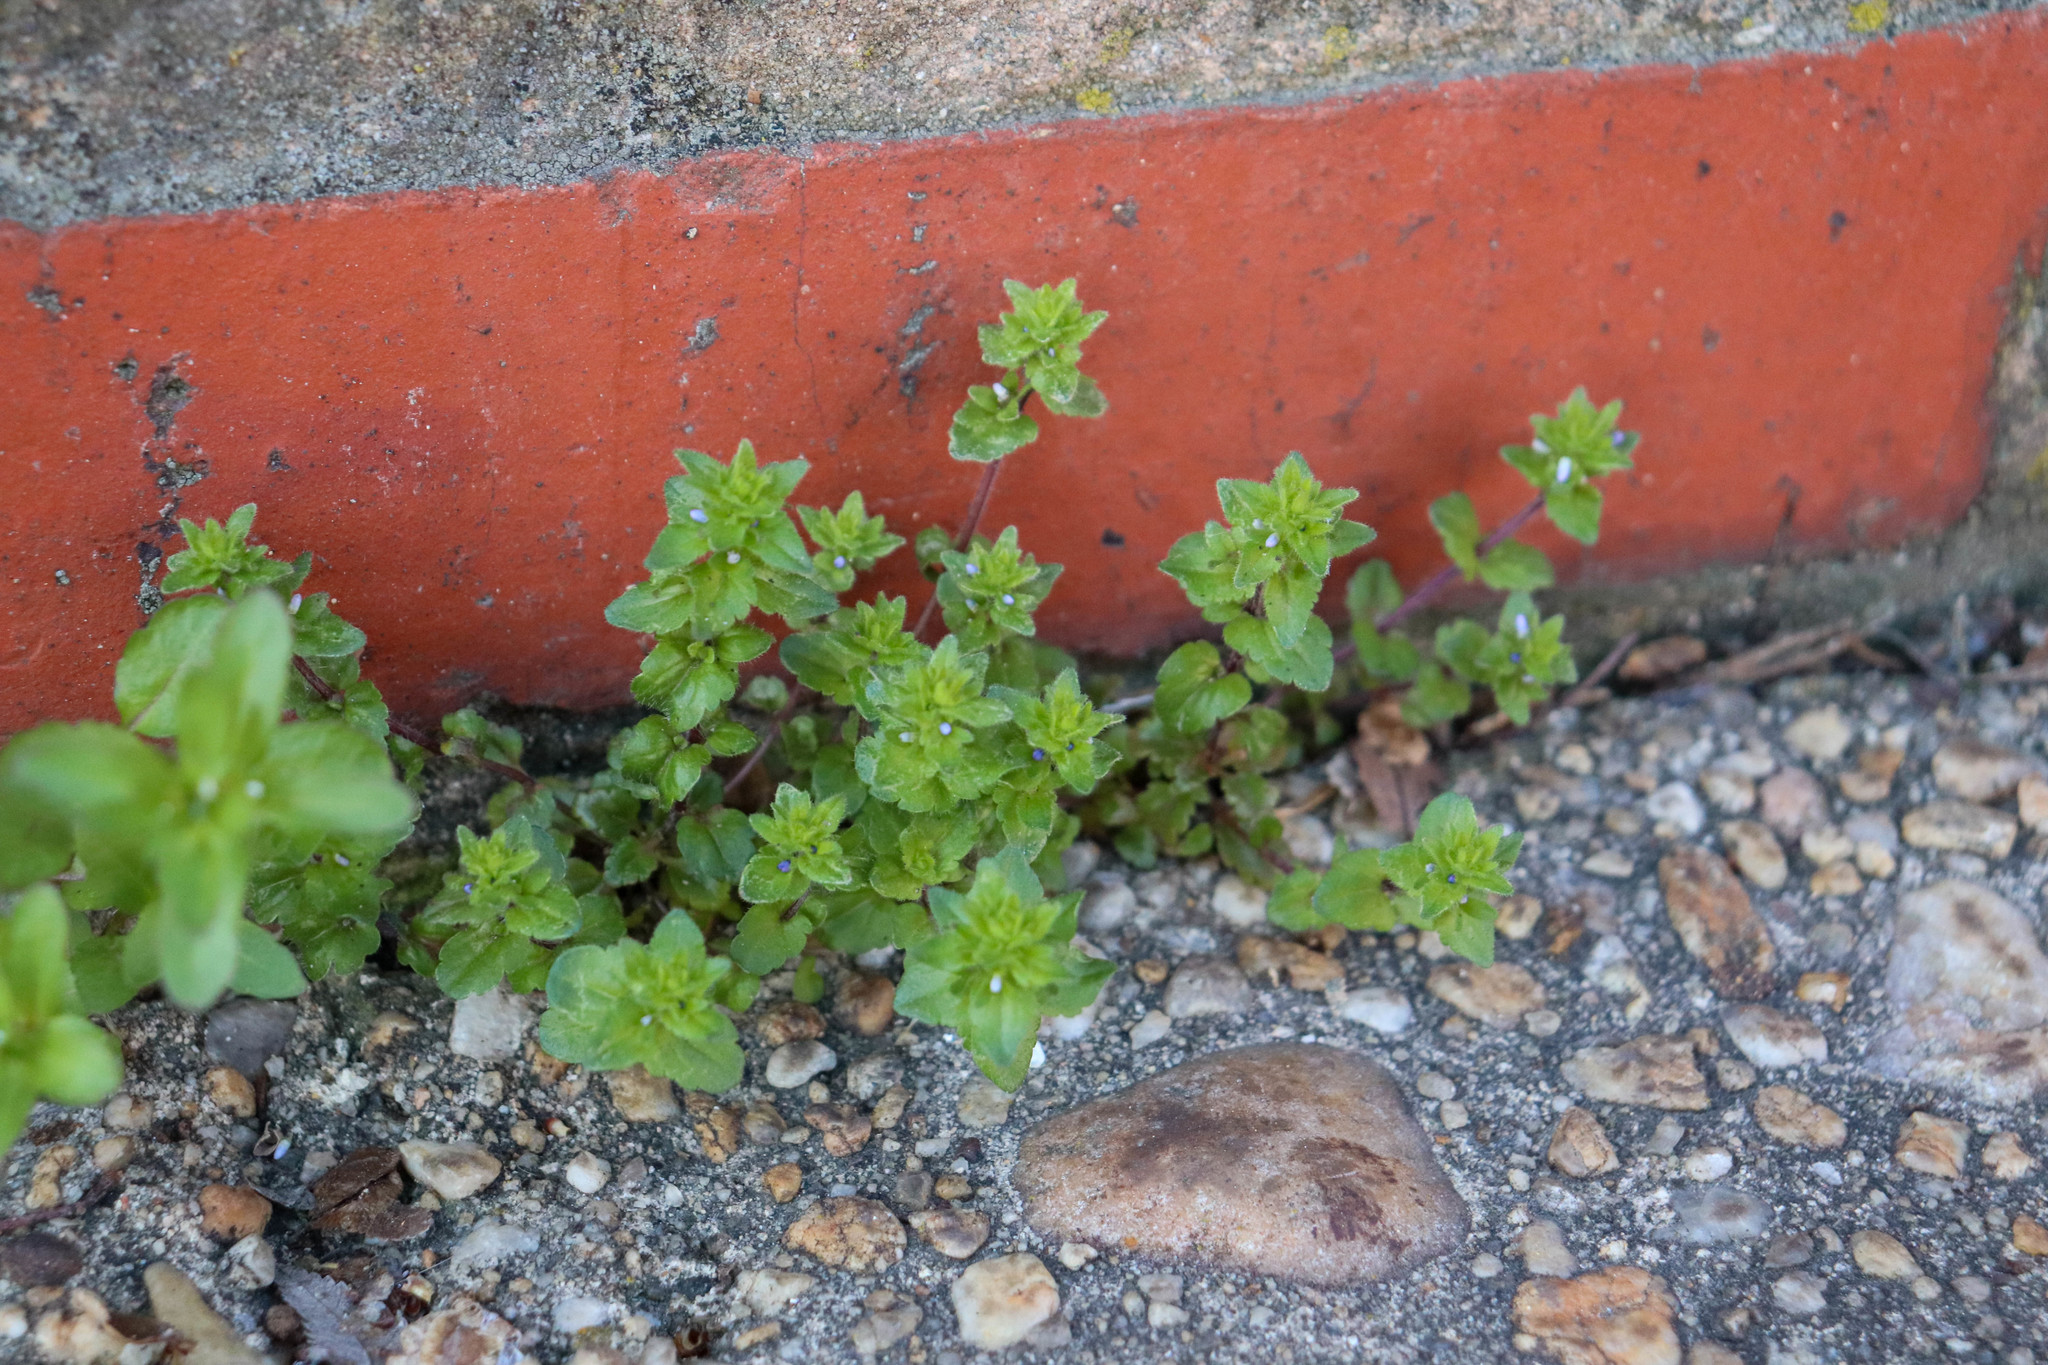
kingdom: Plantae
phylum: Tracheophyta
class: Magnoliopsida
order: Lamiales
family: Plantaginaceae
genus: Veronica
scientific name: Veronica arvensis
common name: Corn speedwell
